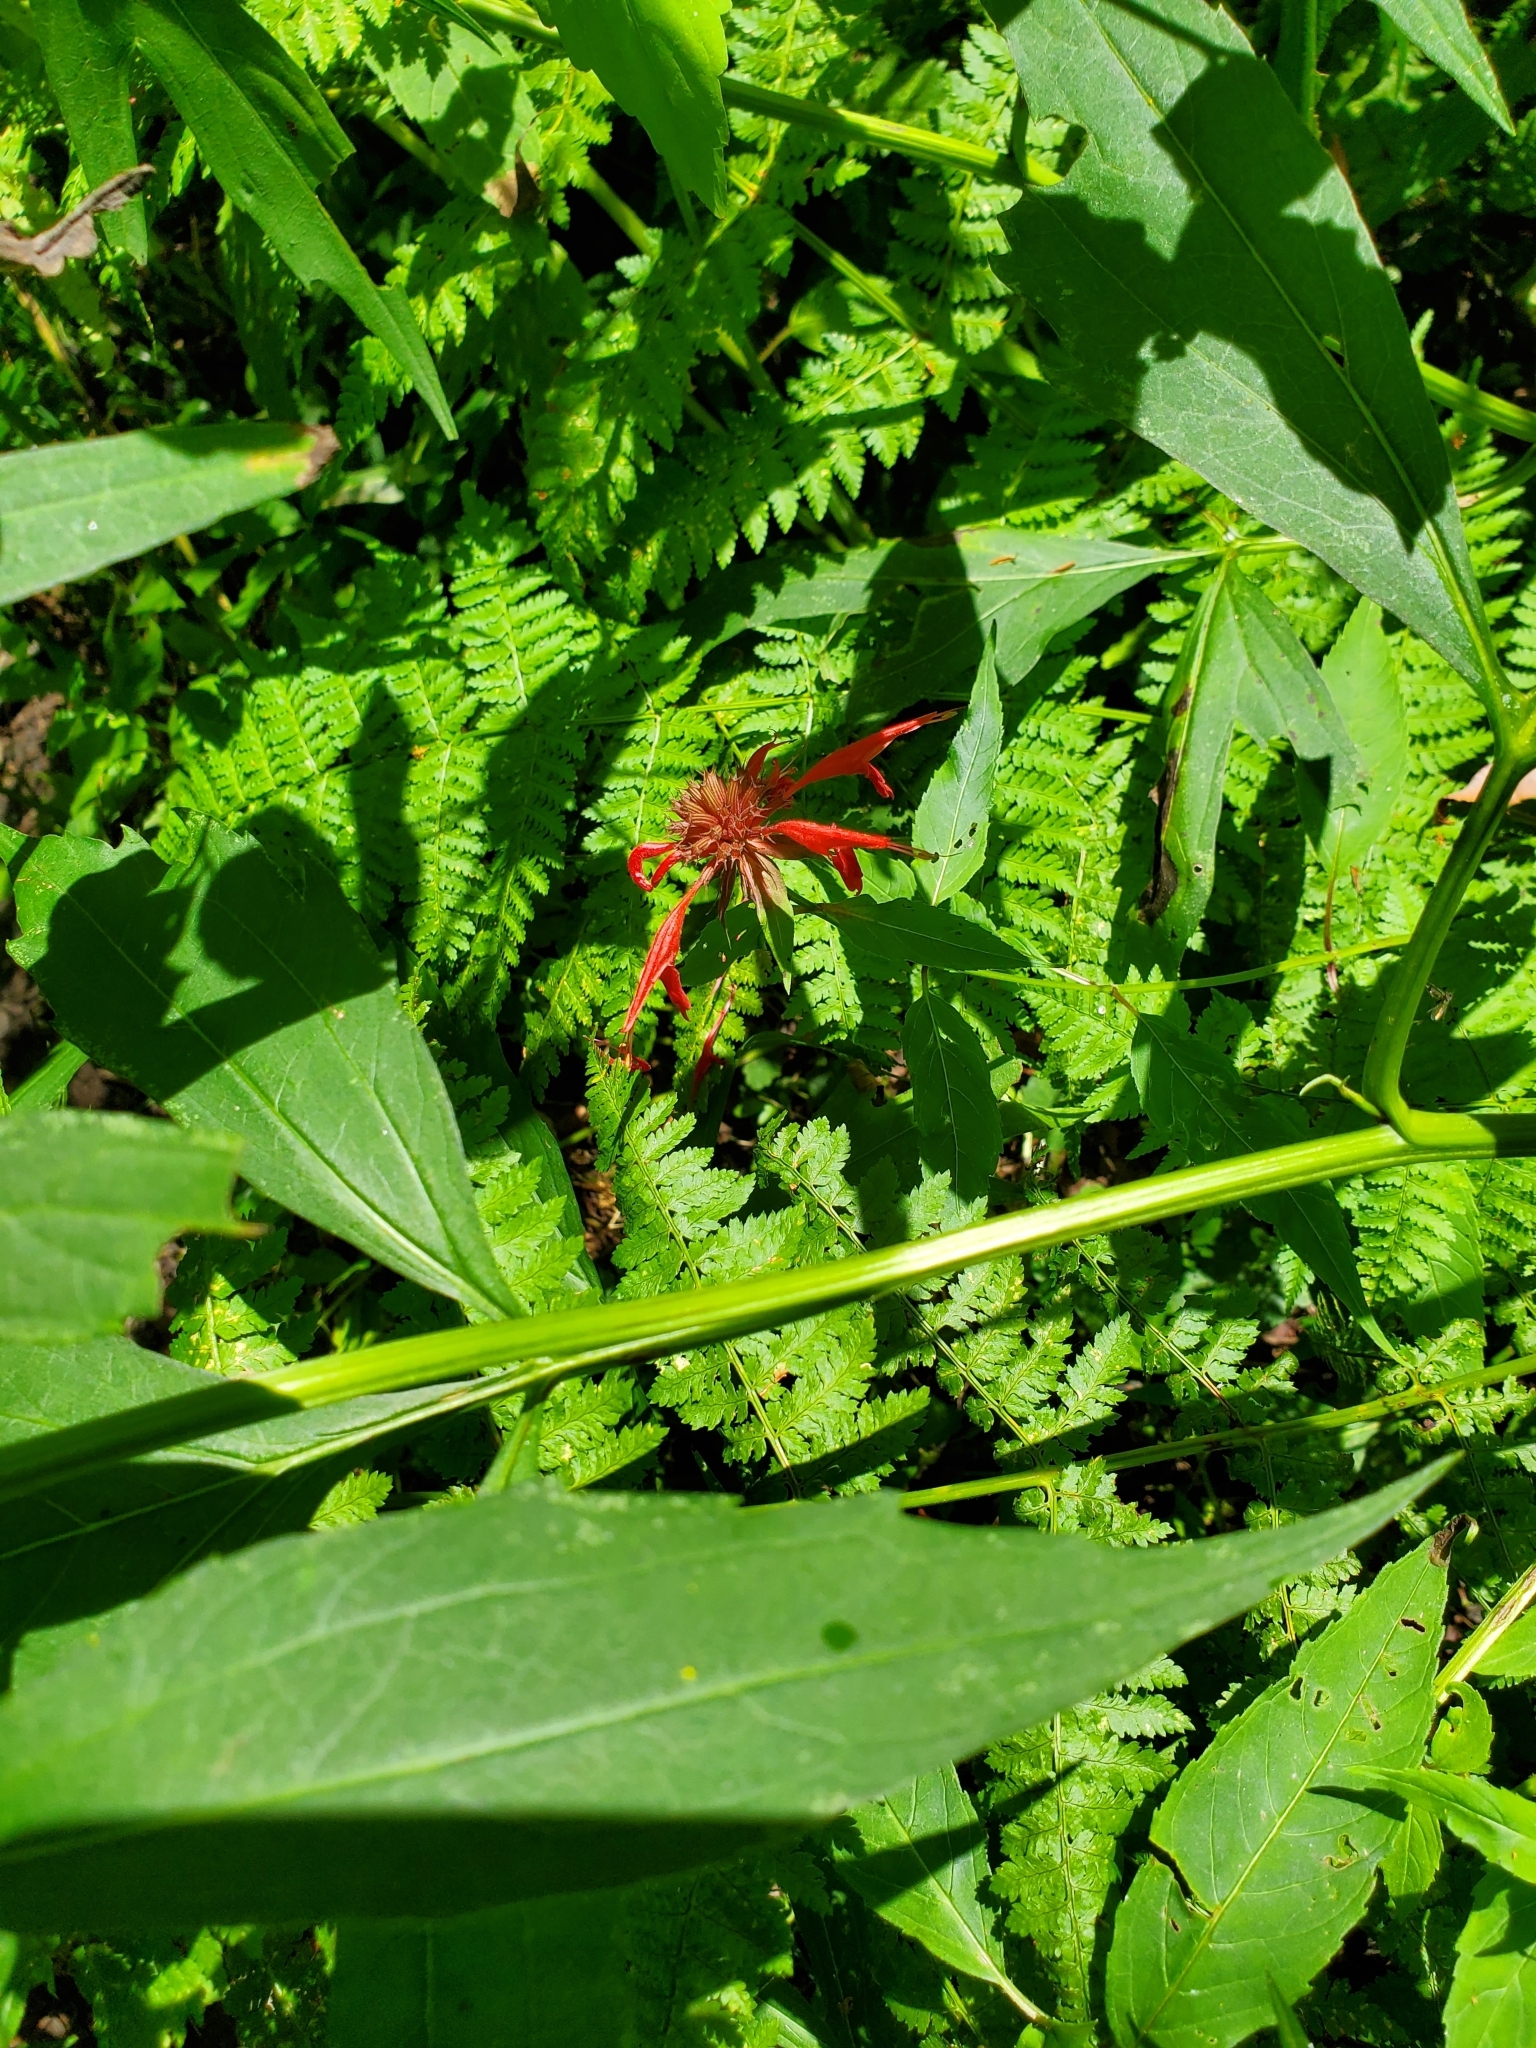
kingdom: Plantae
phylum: Tracheophyta
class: Magnoliopsida
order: Lamiales
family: Lamiaceae
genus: Monarda
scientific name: Monarda didyma
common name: Beebalm
